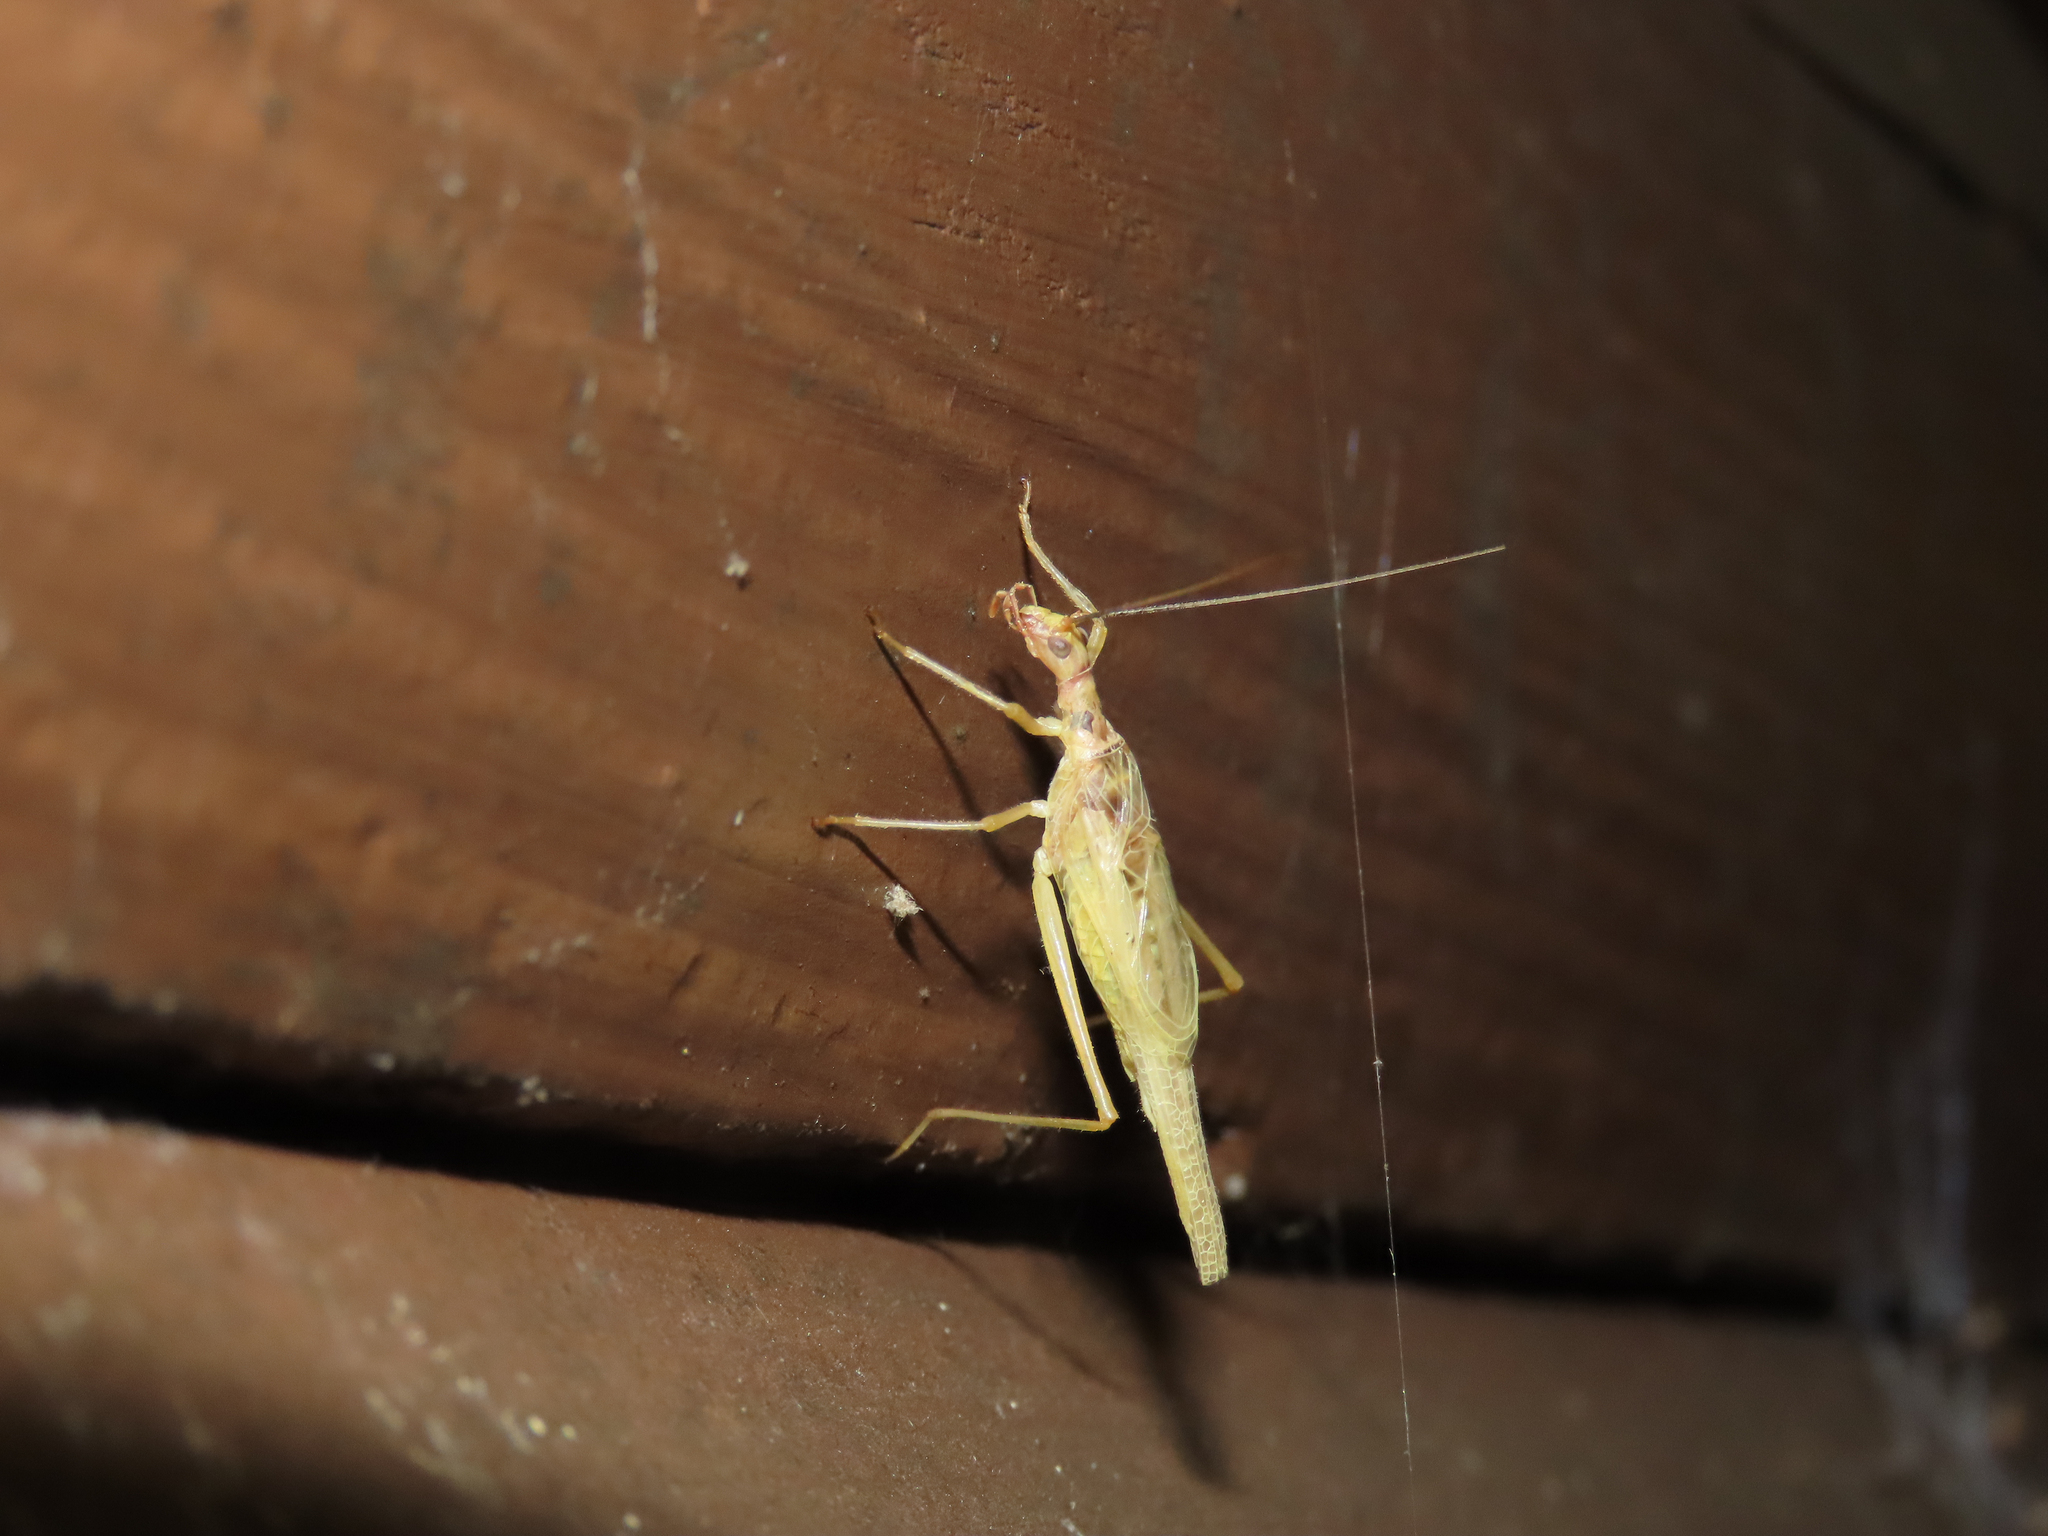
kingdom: Animalia
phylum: Arthropoda
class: Insecta
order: Orthoptera
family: Gryllidae
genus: Neoxabea
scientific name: Neoxabea bipunctata
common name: Two-spotted tree cricket
